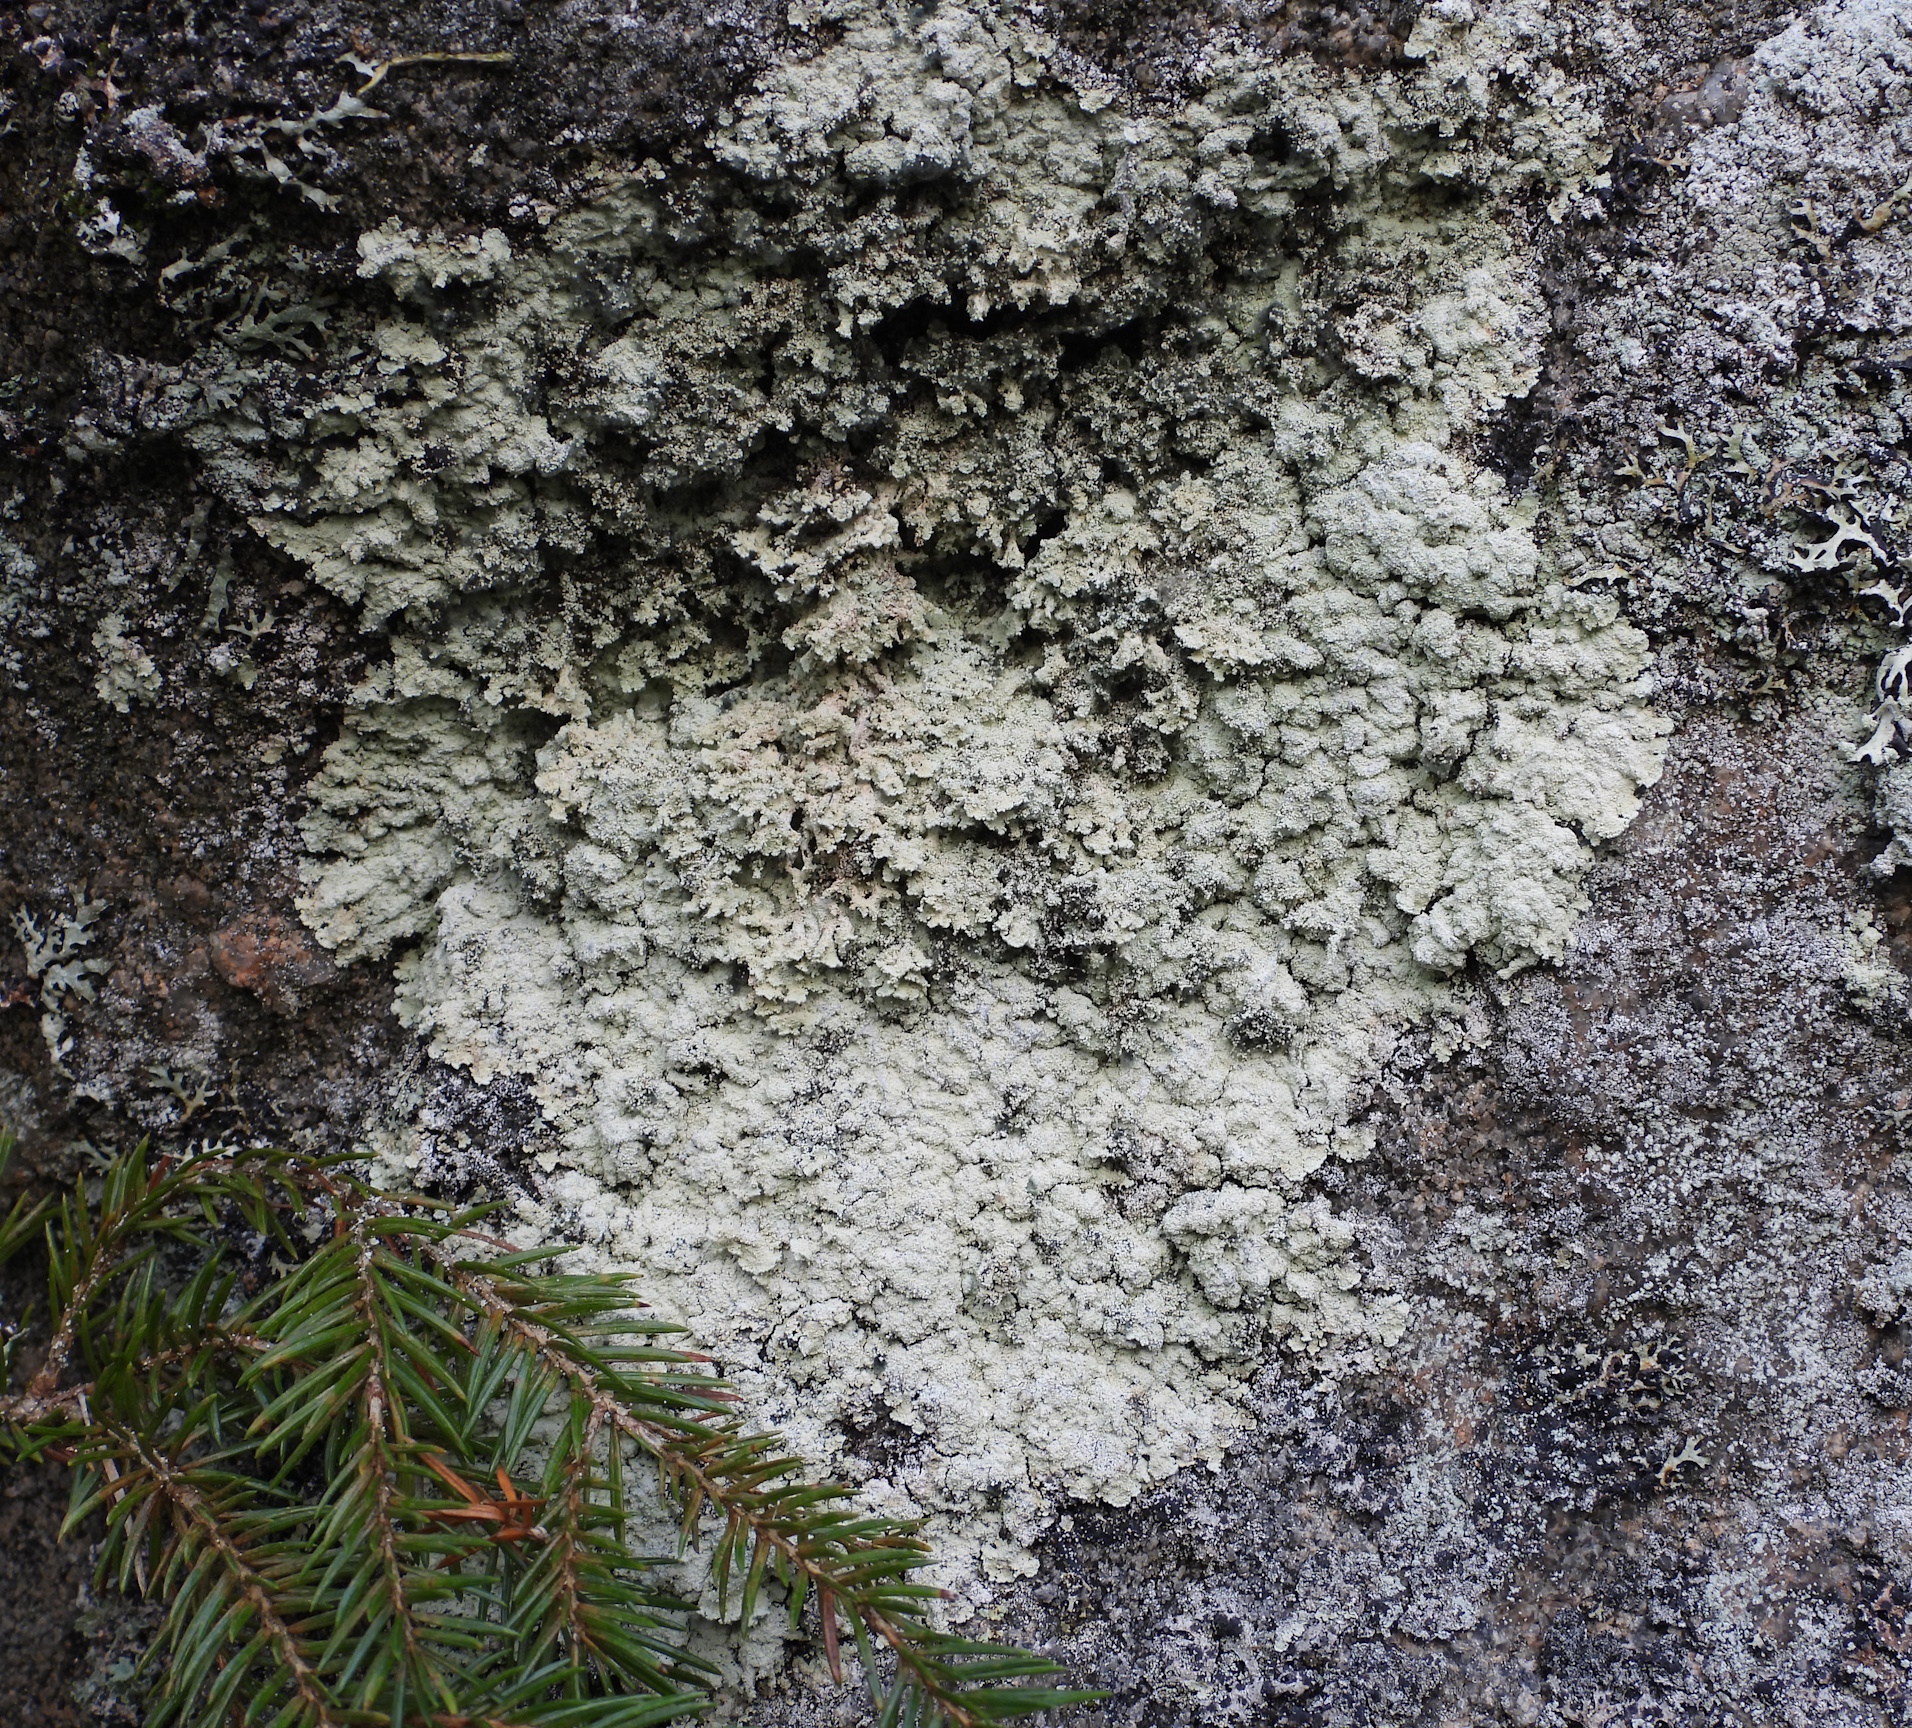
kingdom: Fungi
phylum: Ascomycota
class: Lecanoromycetes
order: Lecanorales
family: Stereocaulaceae
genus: Lepraria
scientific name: Lepraria membranacea
